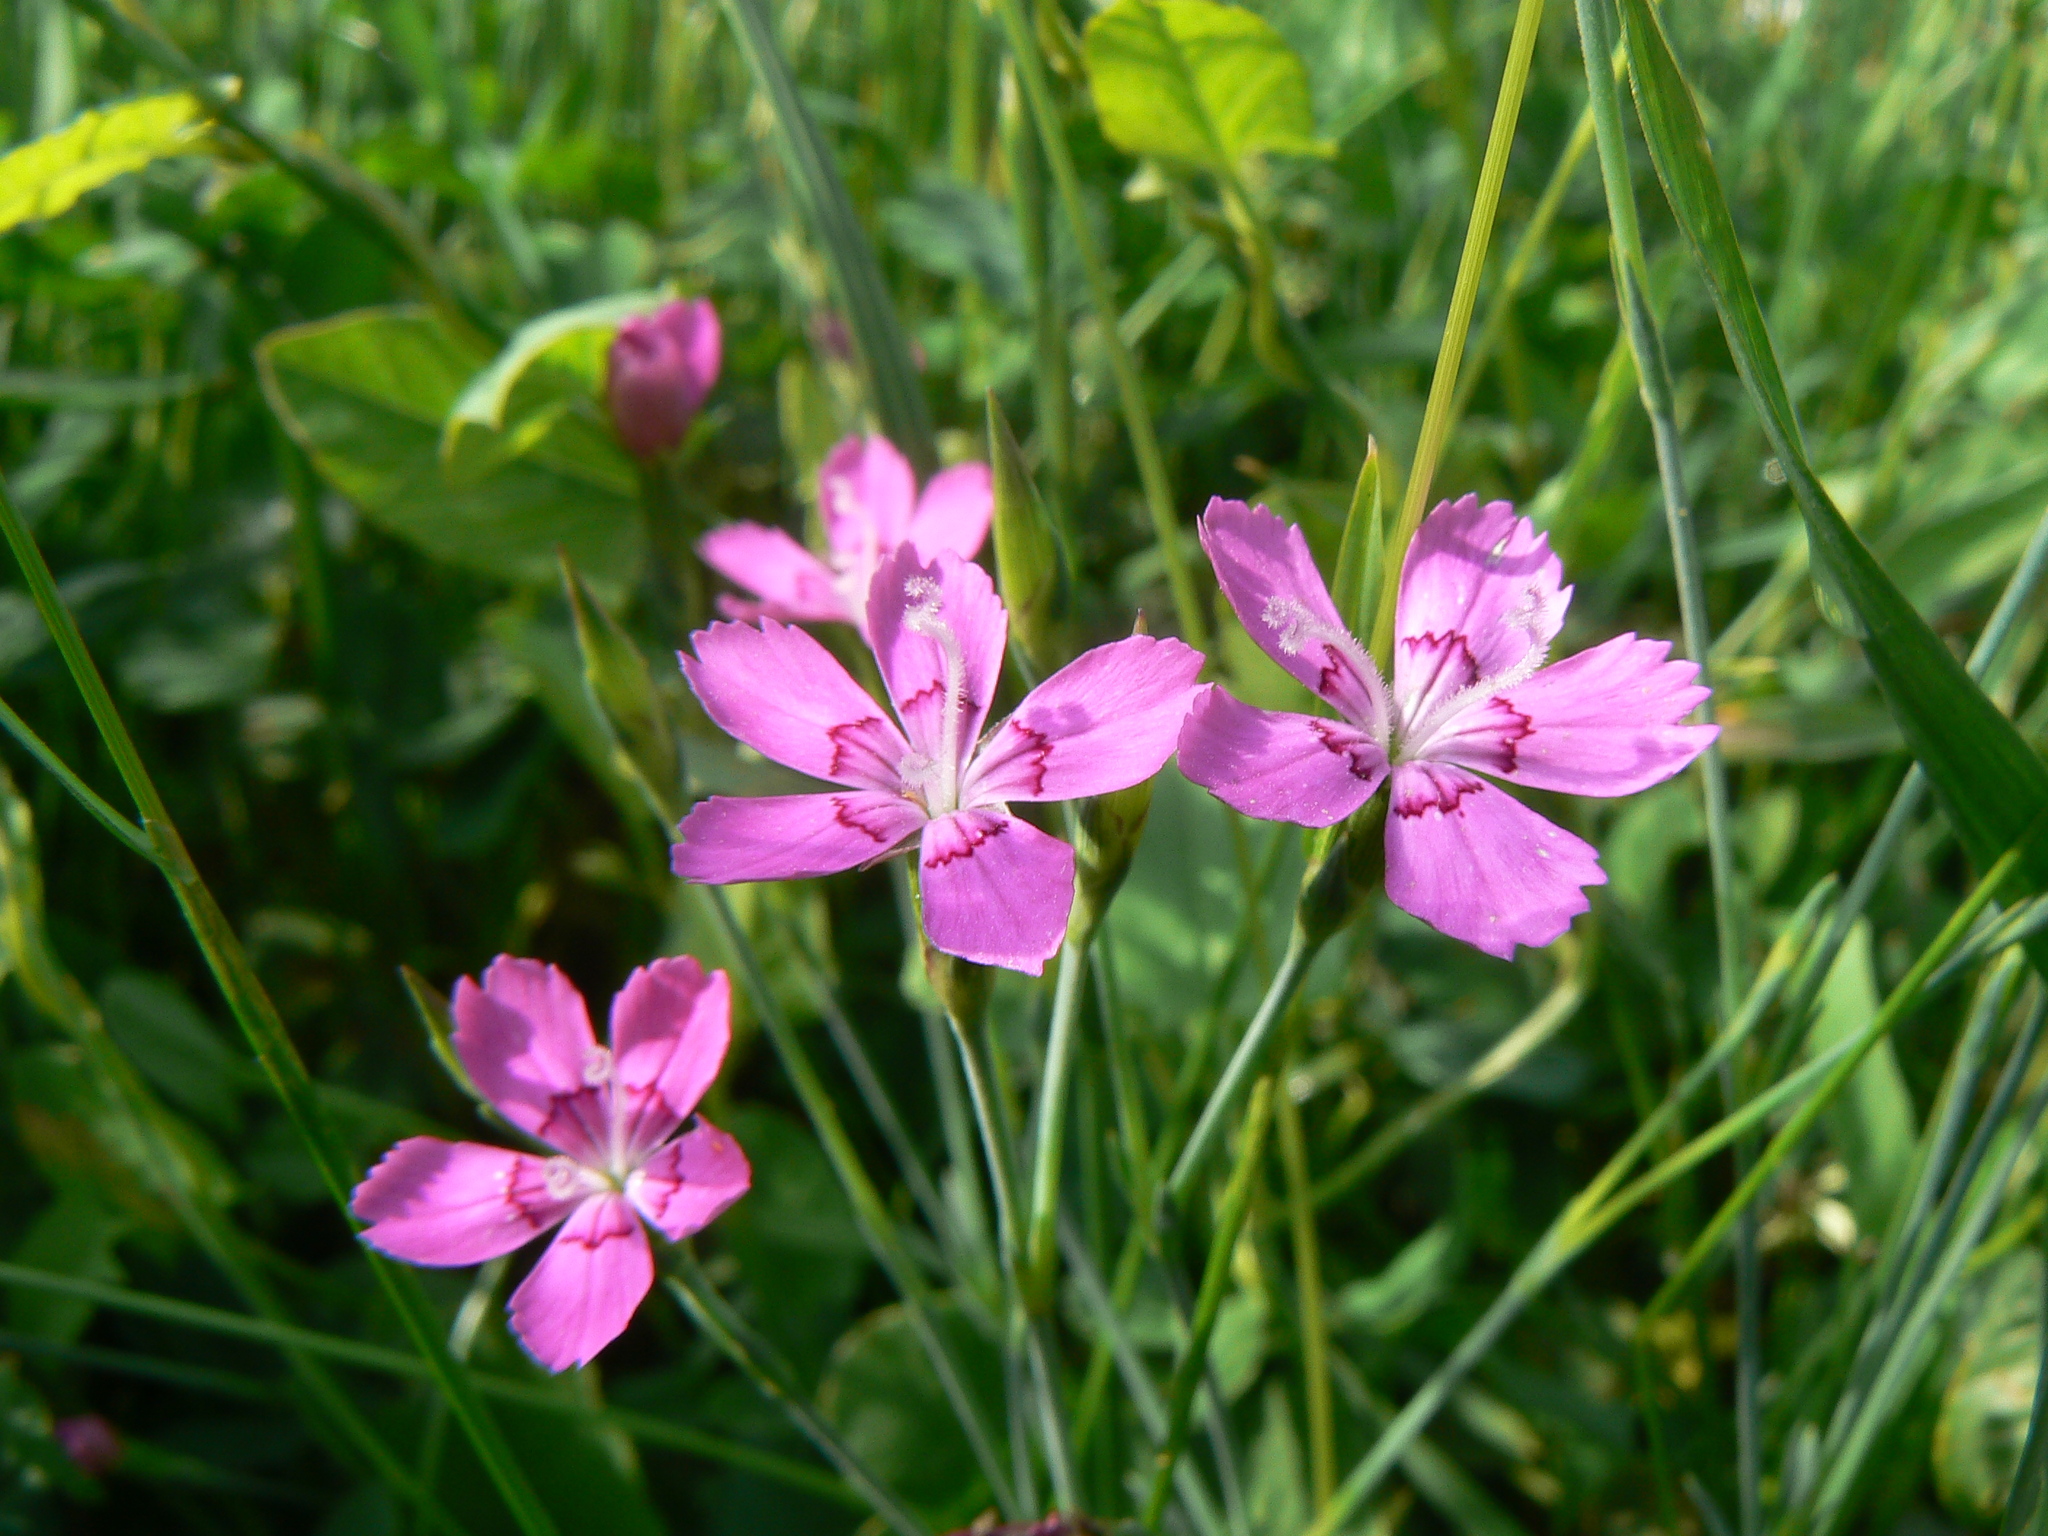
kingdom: Plantae
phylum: Tracheophyta
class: Magnoliopsida
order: Caryophyllales
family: Caryophyllaceae
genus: Dianthus
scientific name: Dianthus deltoides
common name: Maiden pink
